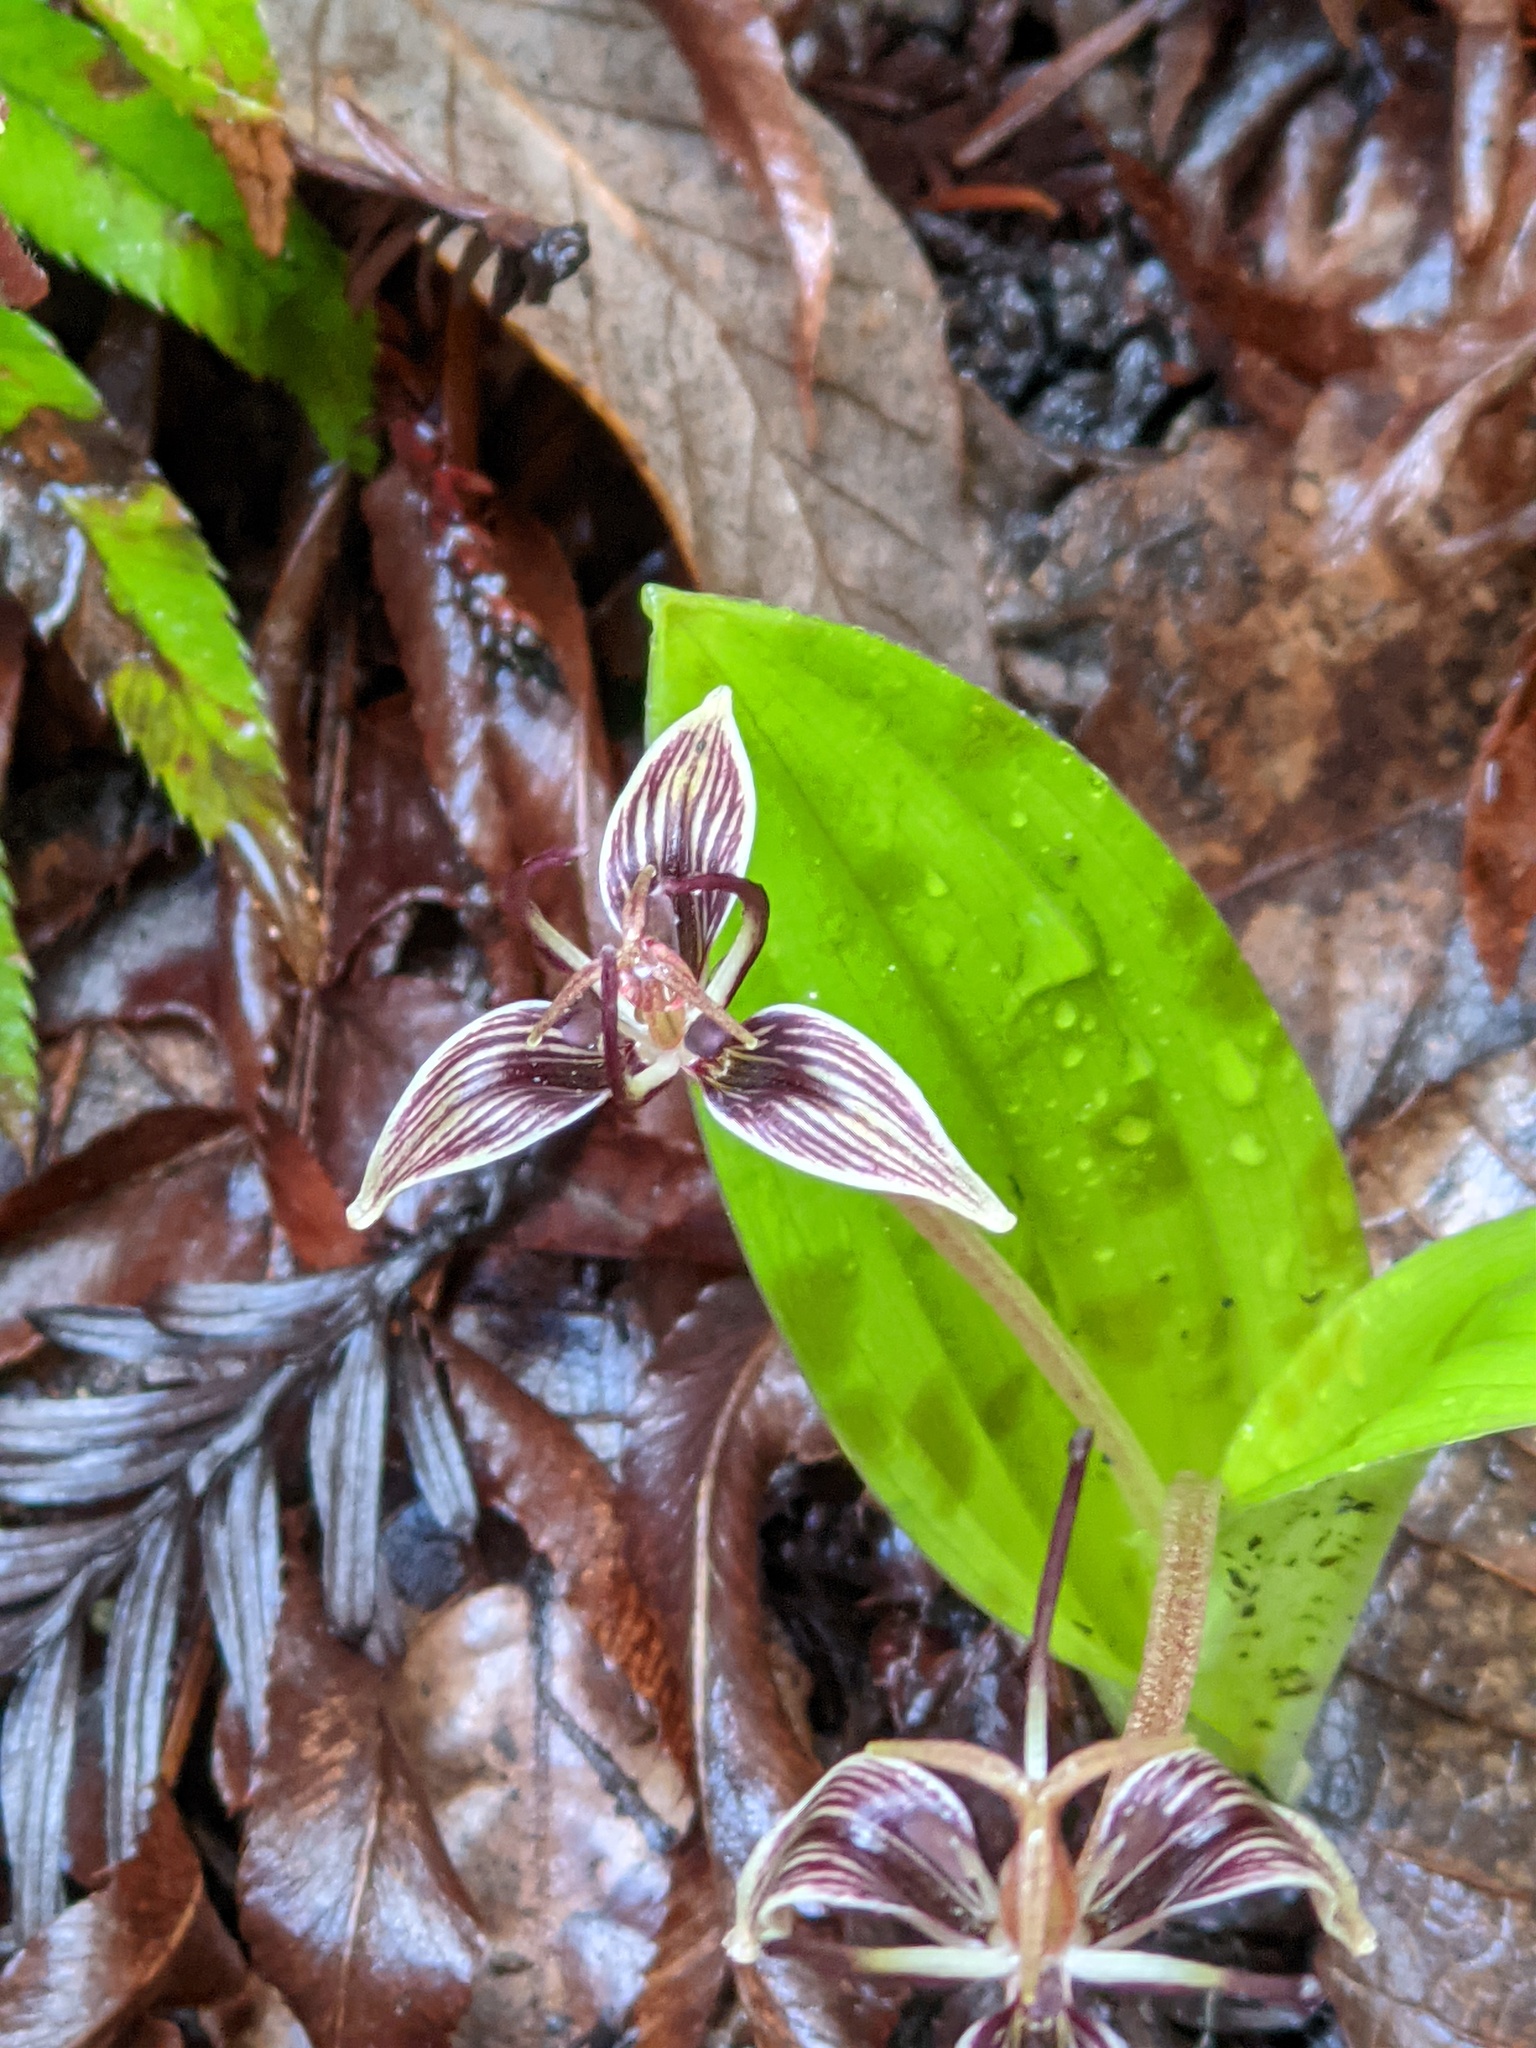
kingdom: Plantae
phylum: Tracheophyta
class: Liliopsida
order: Liliales
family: Liliaceae
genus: Scoliopus
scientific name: Scoliopus bigelovii
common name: Foetid adder's-tongue
